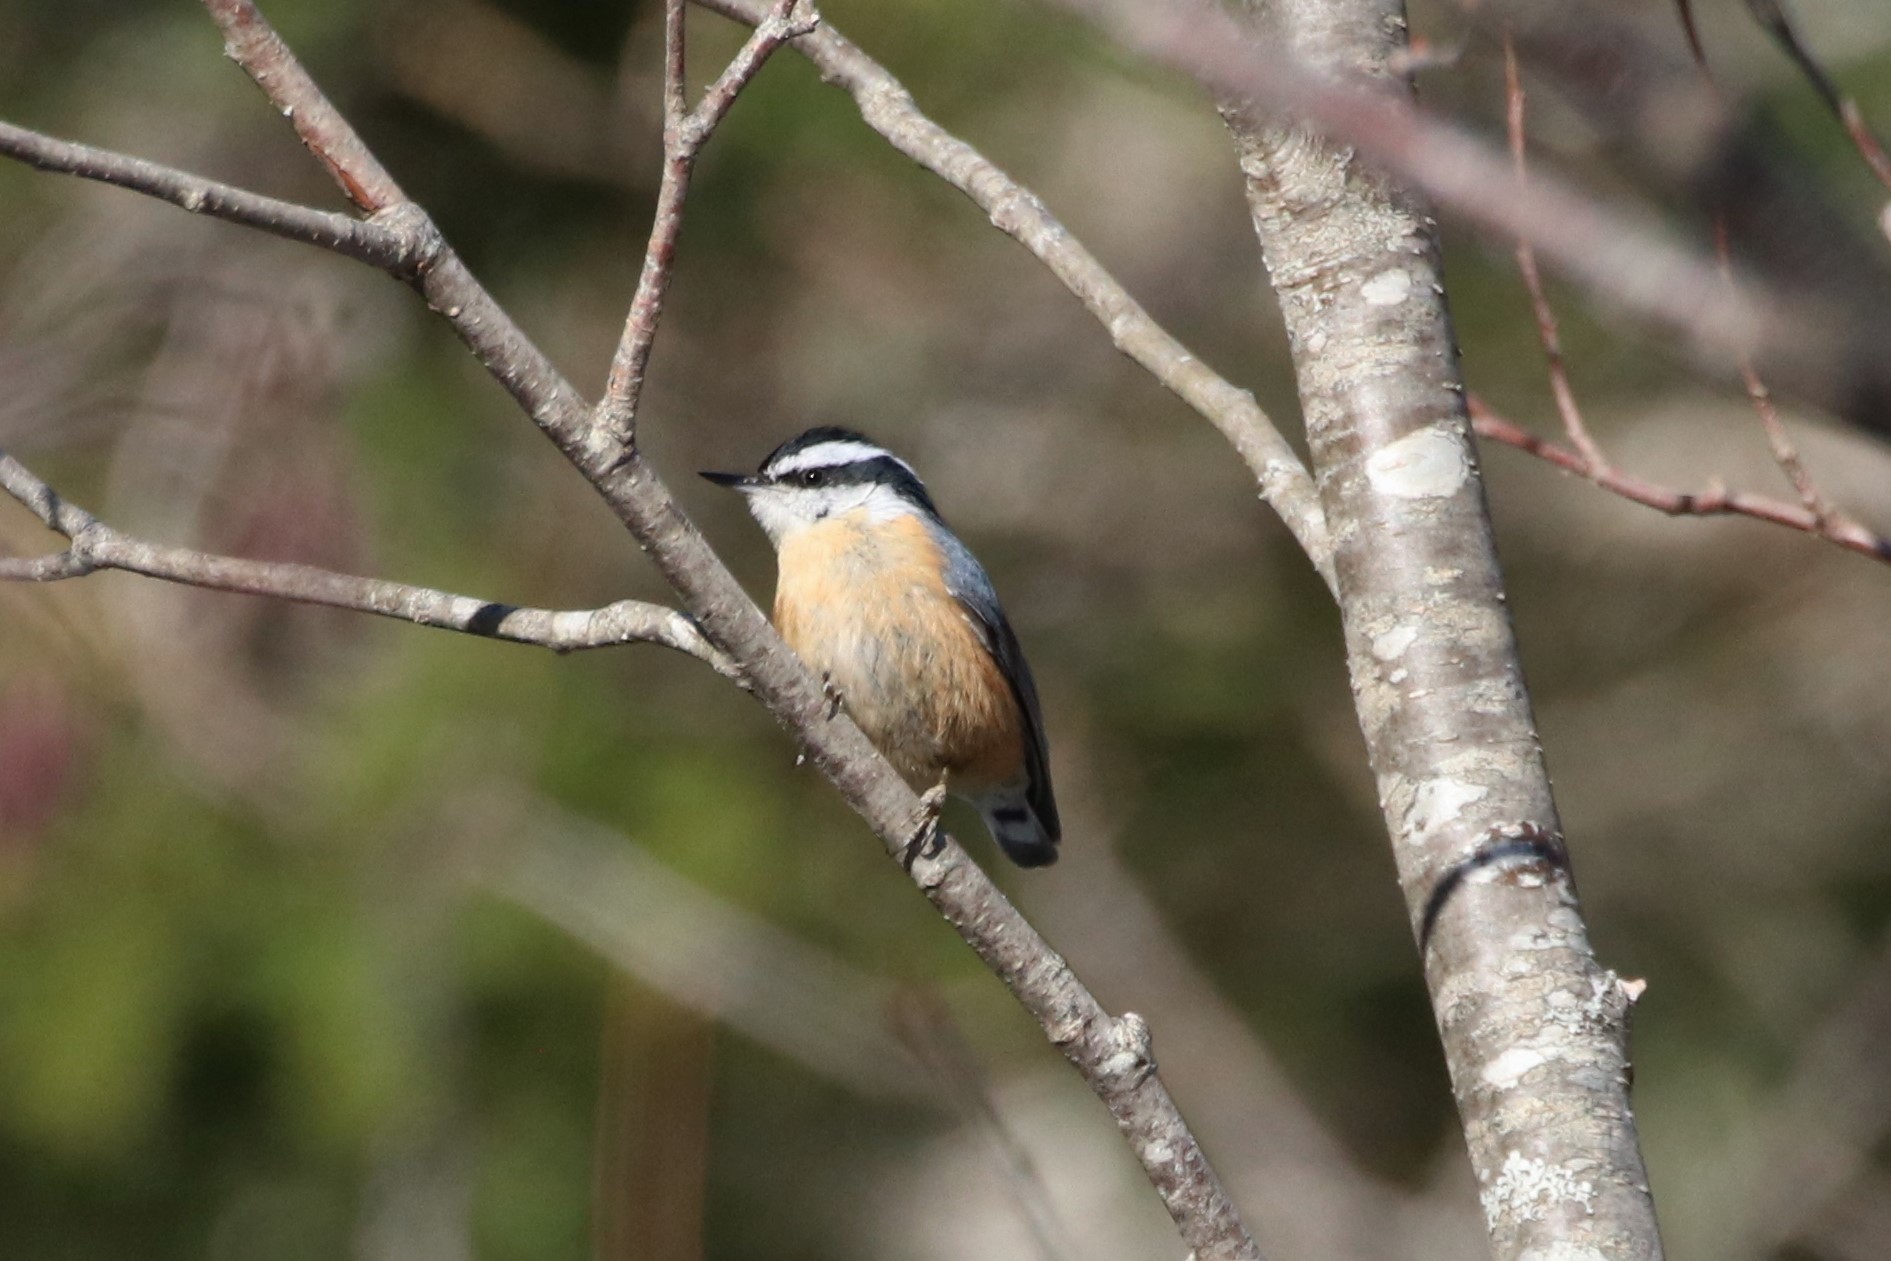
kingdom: Animalia
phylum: Chordata
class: Aves
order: Passeriformes
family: Sittidae
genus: Sitta
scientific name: Sitta canadensis
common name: Red-breasted nuthatch
